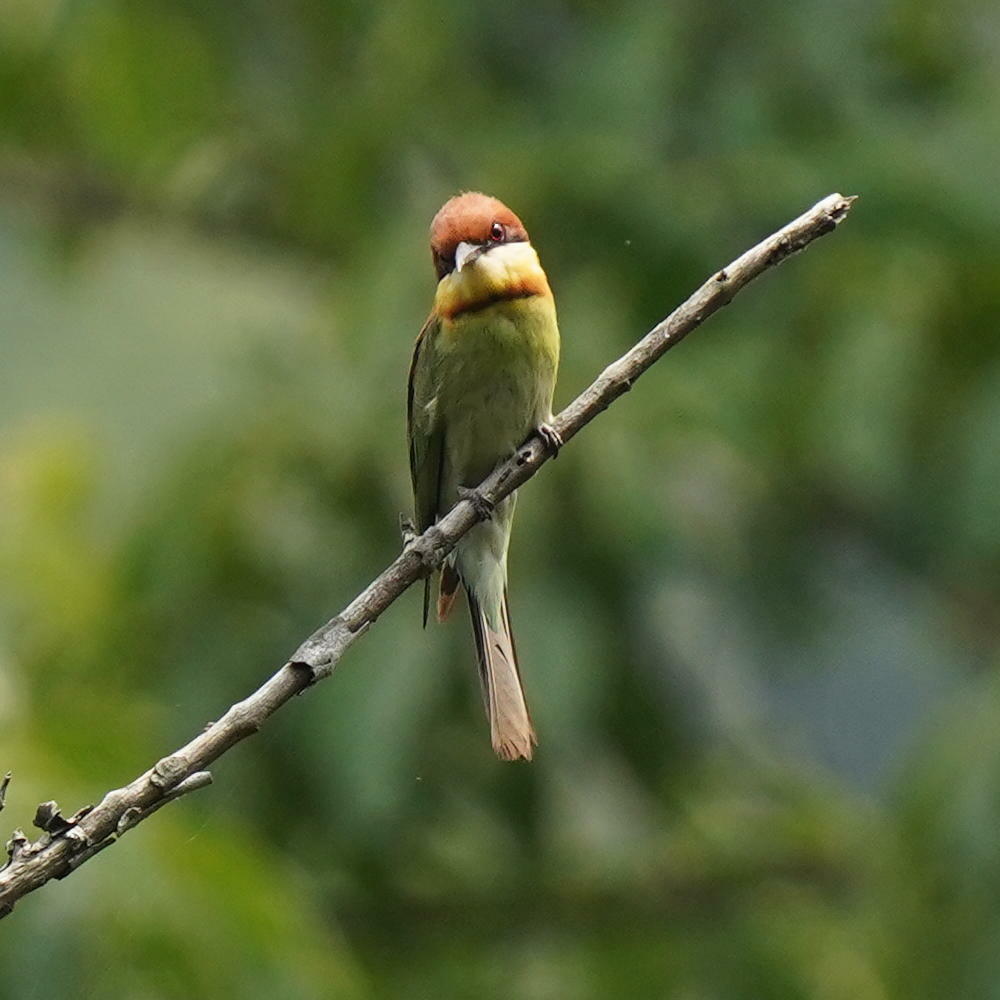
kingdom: Animalia
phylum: Chordata
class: Aves
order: Coraciiformes
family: Meropidae
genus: Merops
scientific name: Merops leschenaulti
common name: Chestnut-headed bee-eater
